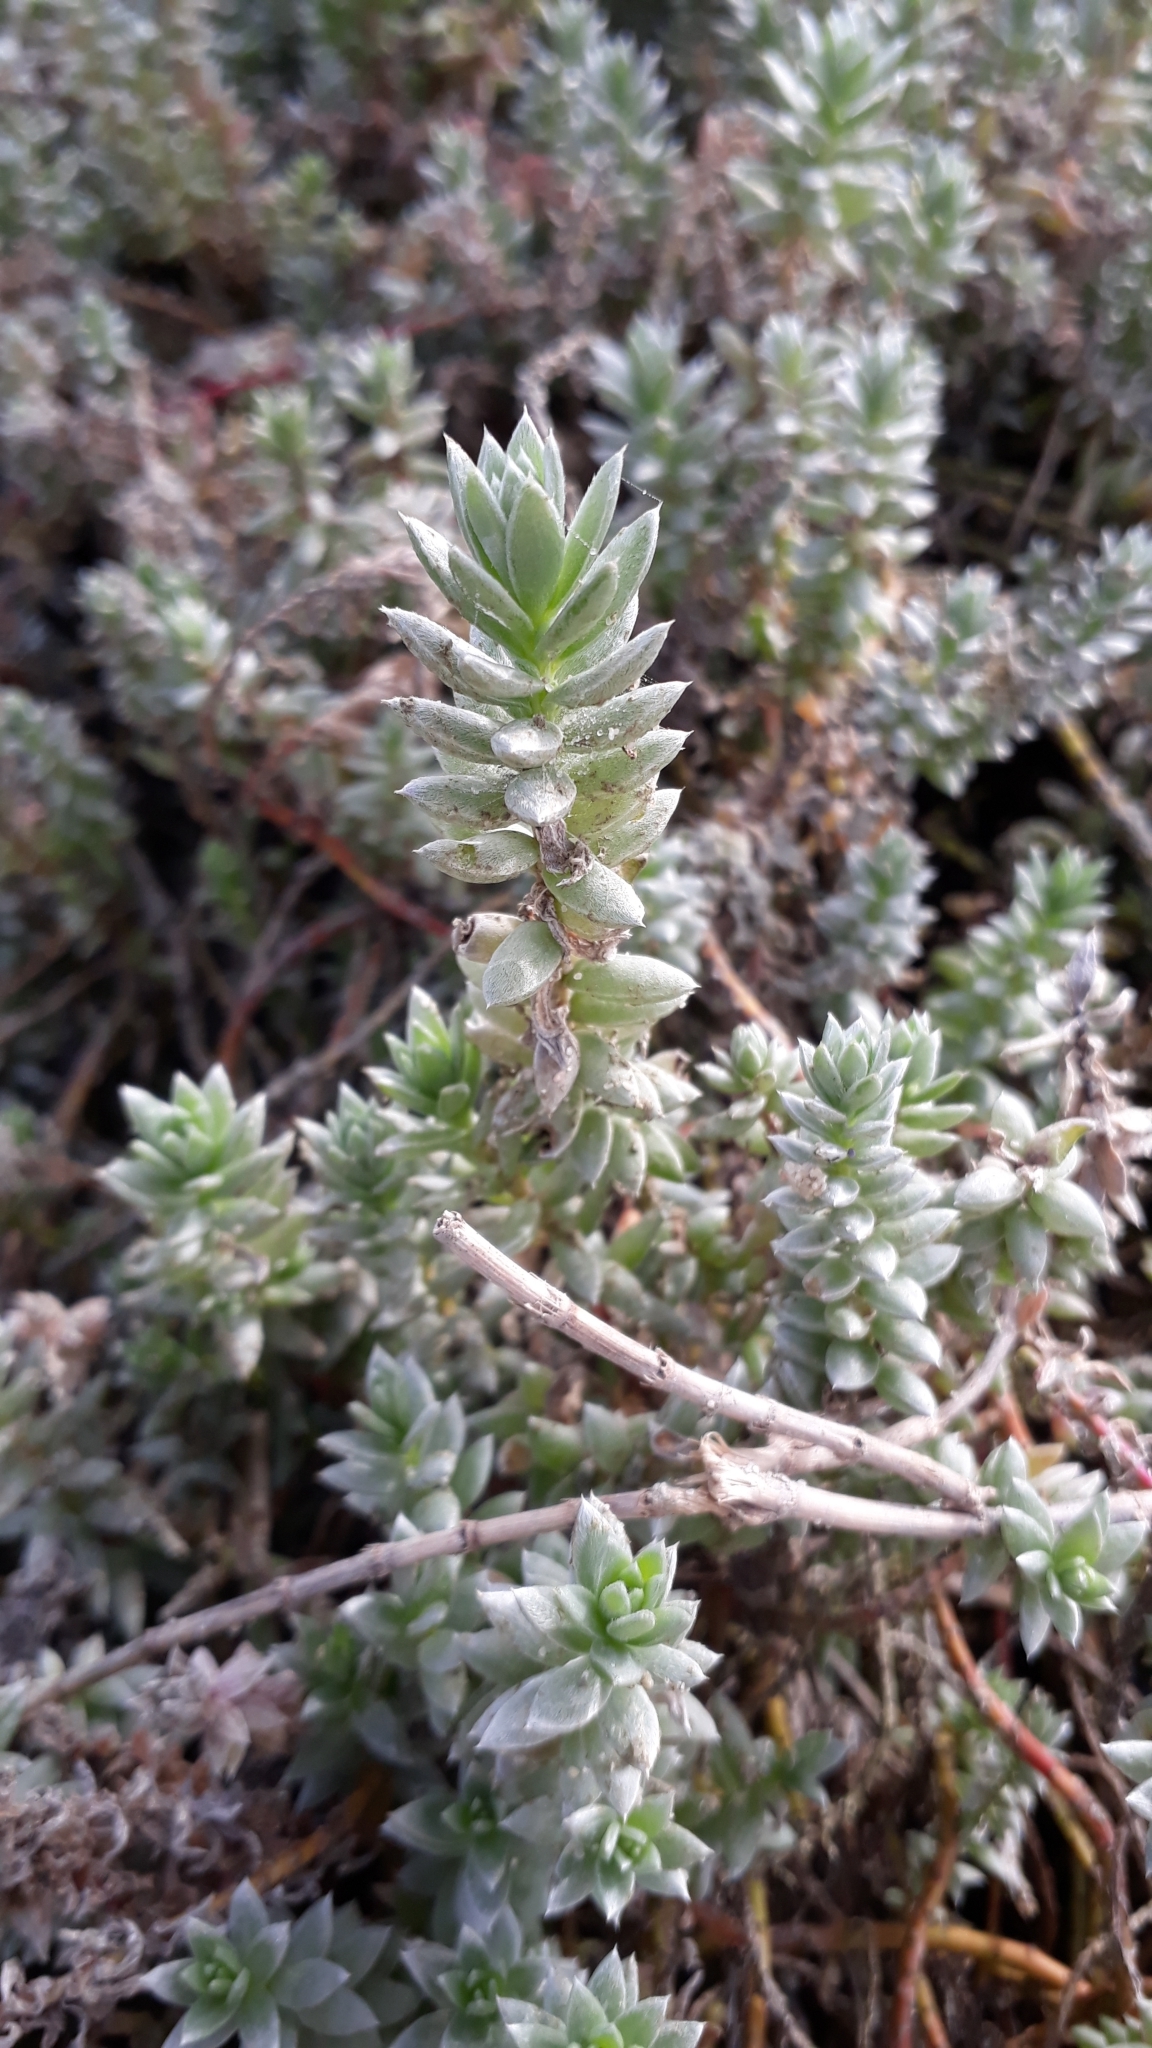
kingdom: Plantae
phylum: Tracheophyta
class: Magnoliopsida
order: Caryophyllales
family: Amaranthaceae
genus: Chenolea
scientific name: Chenolea diffusa
